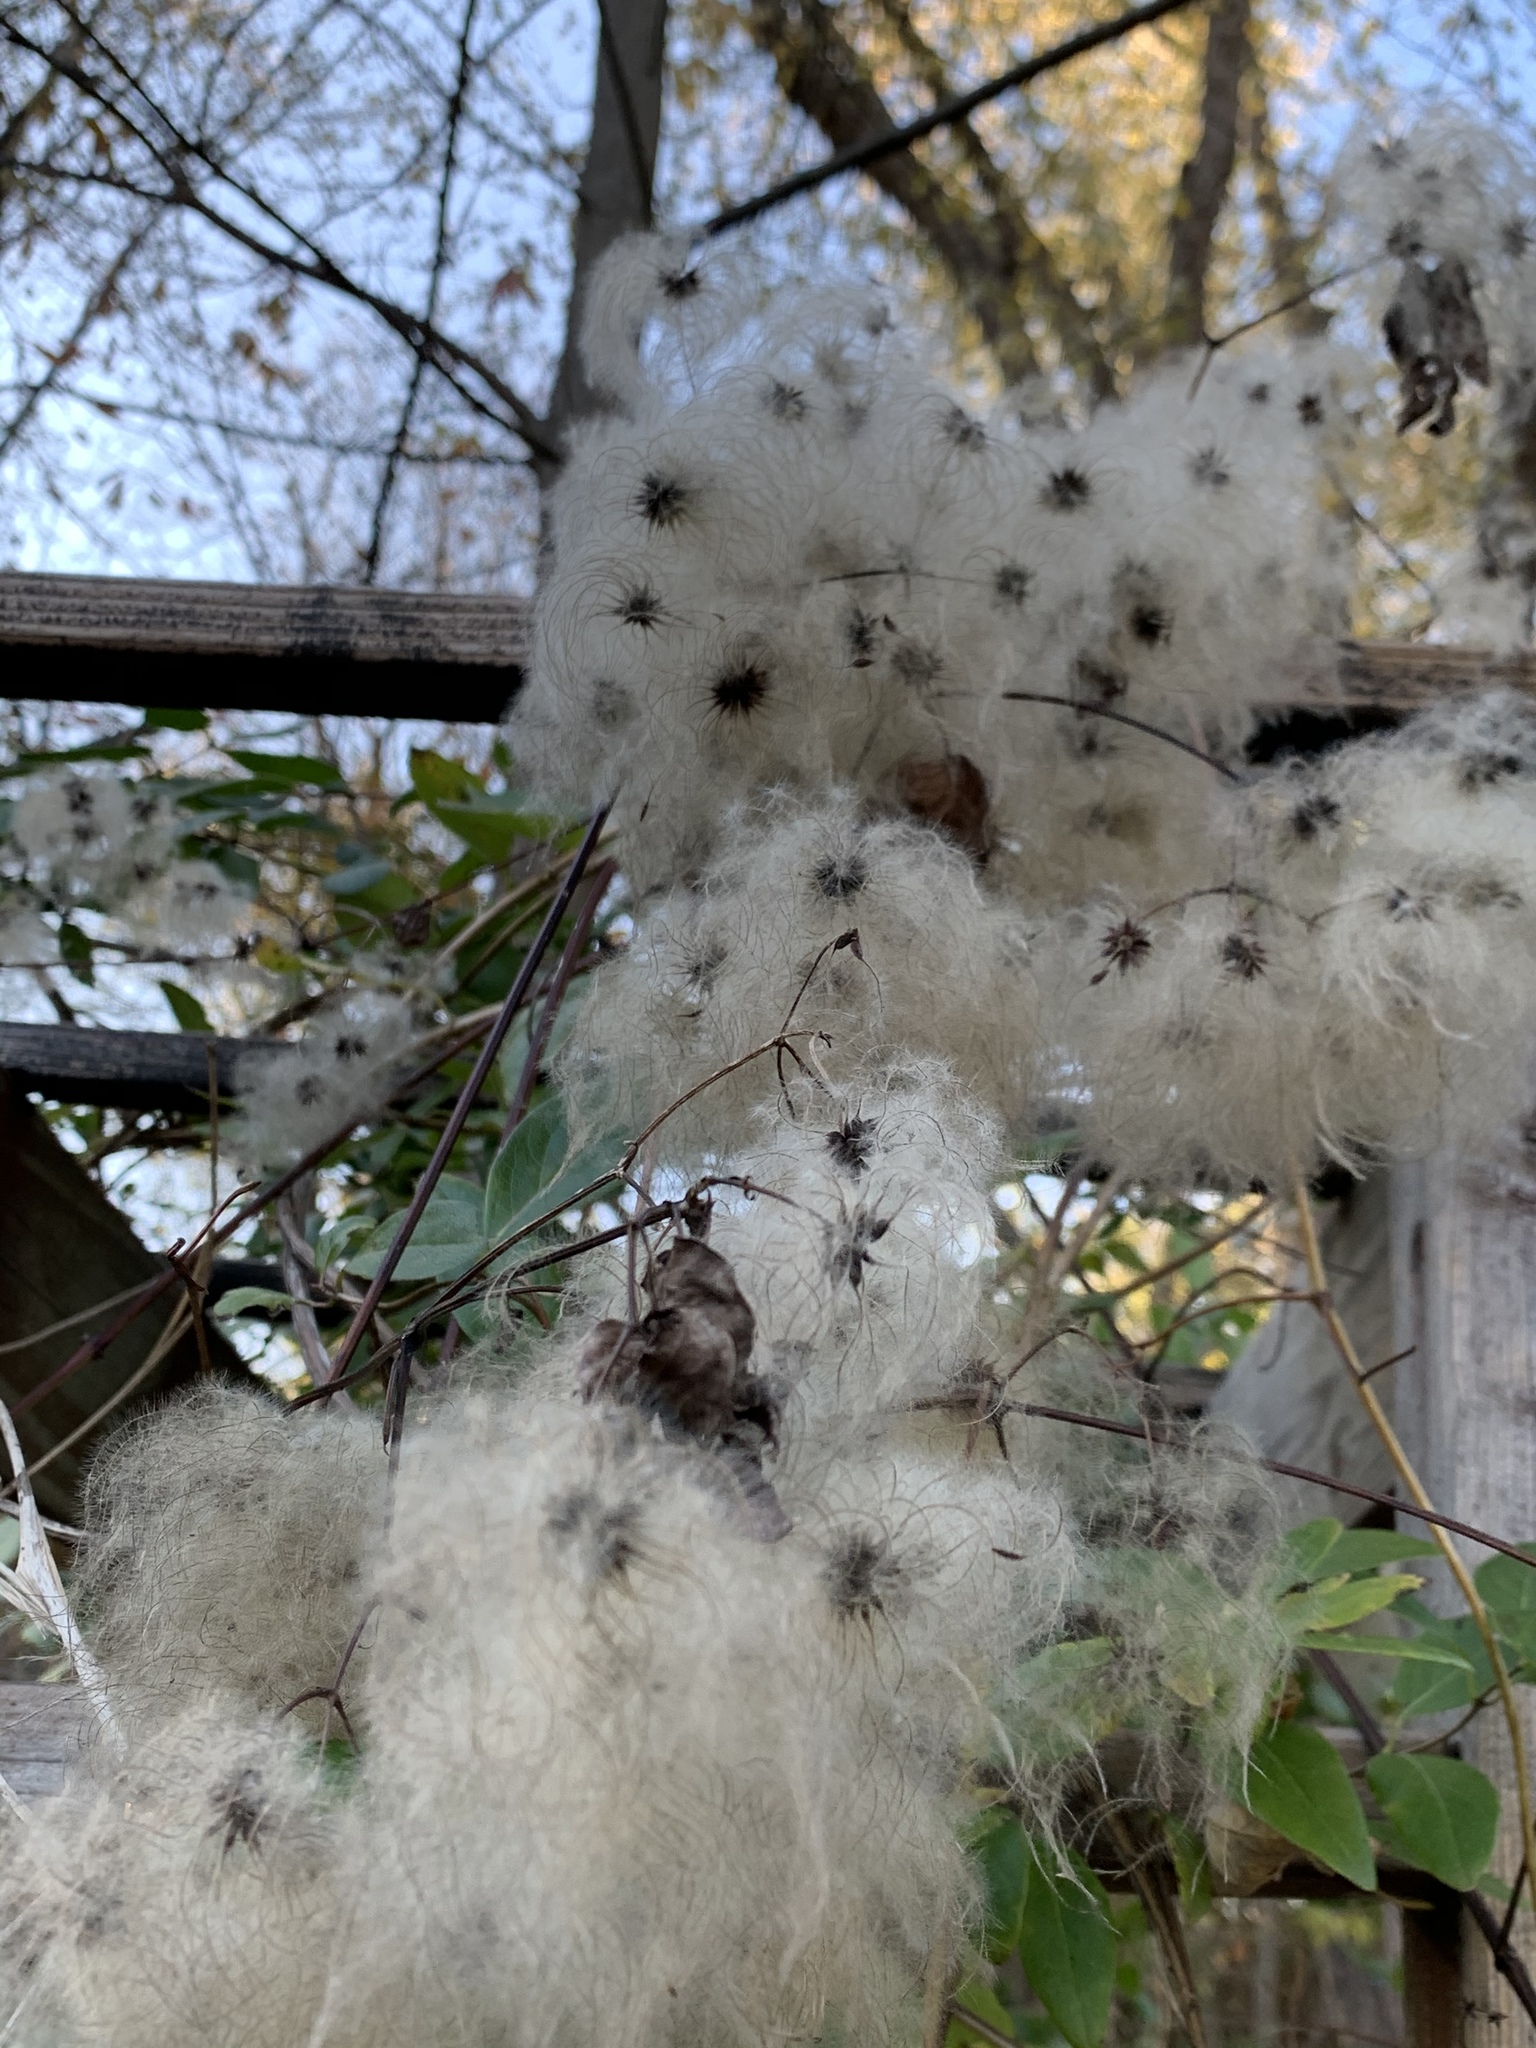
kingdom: Plantae
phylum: Tracheophyta
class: Magnoliopsida
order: Ranunculales
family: Ranunculaceae
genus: Clematis
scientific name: Clematis virginiana
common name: Virgin's-bower
